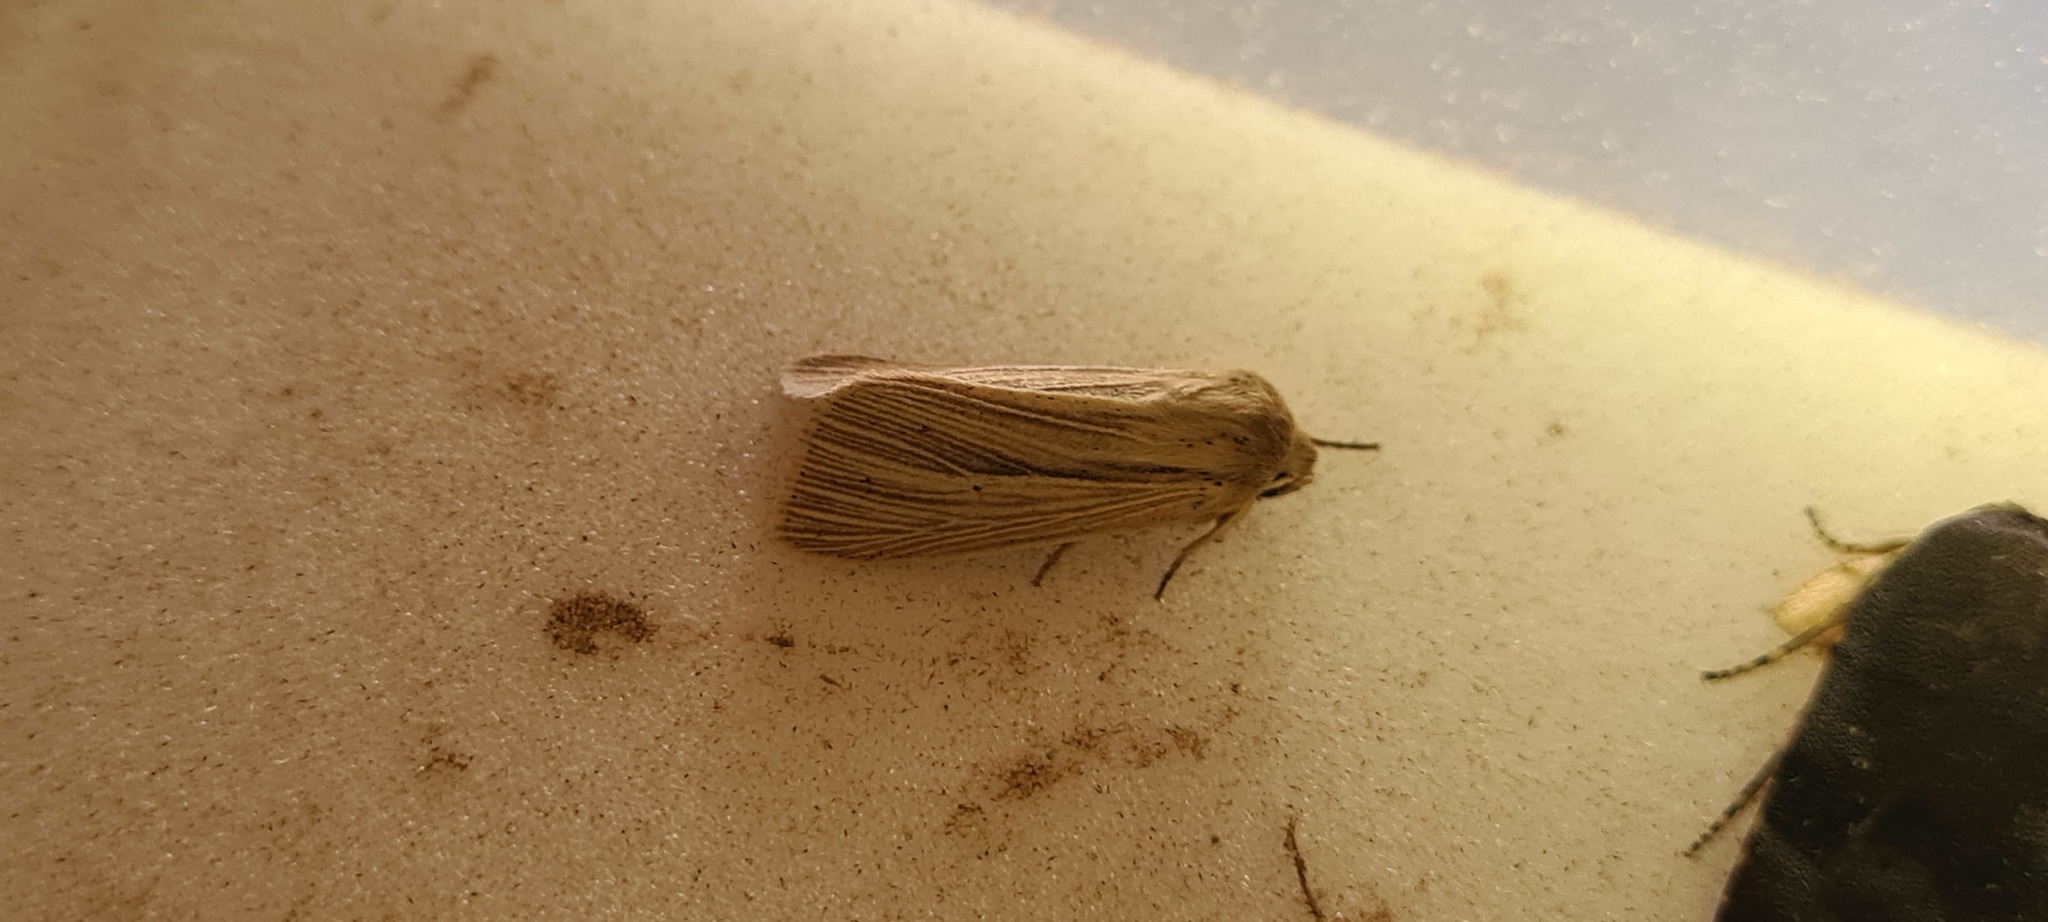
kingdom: Animalia
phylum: Arthropoda
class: Insecta
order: Lepidoptera
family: Noctuidae
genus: Mythimna
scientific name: Mythimna impura
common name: Smoky wainscot
